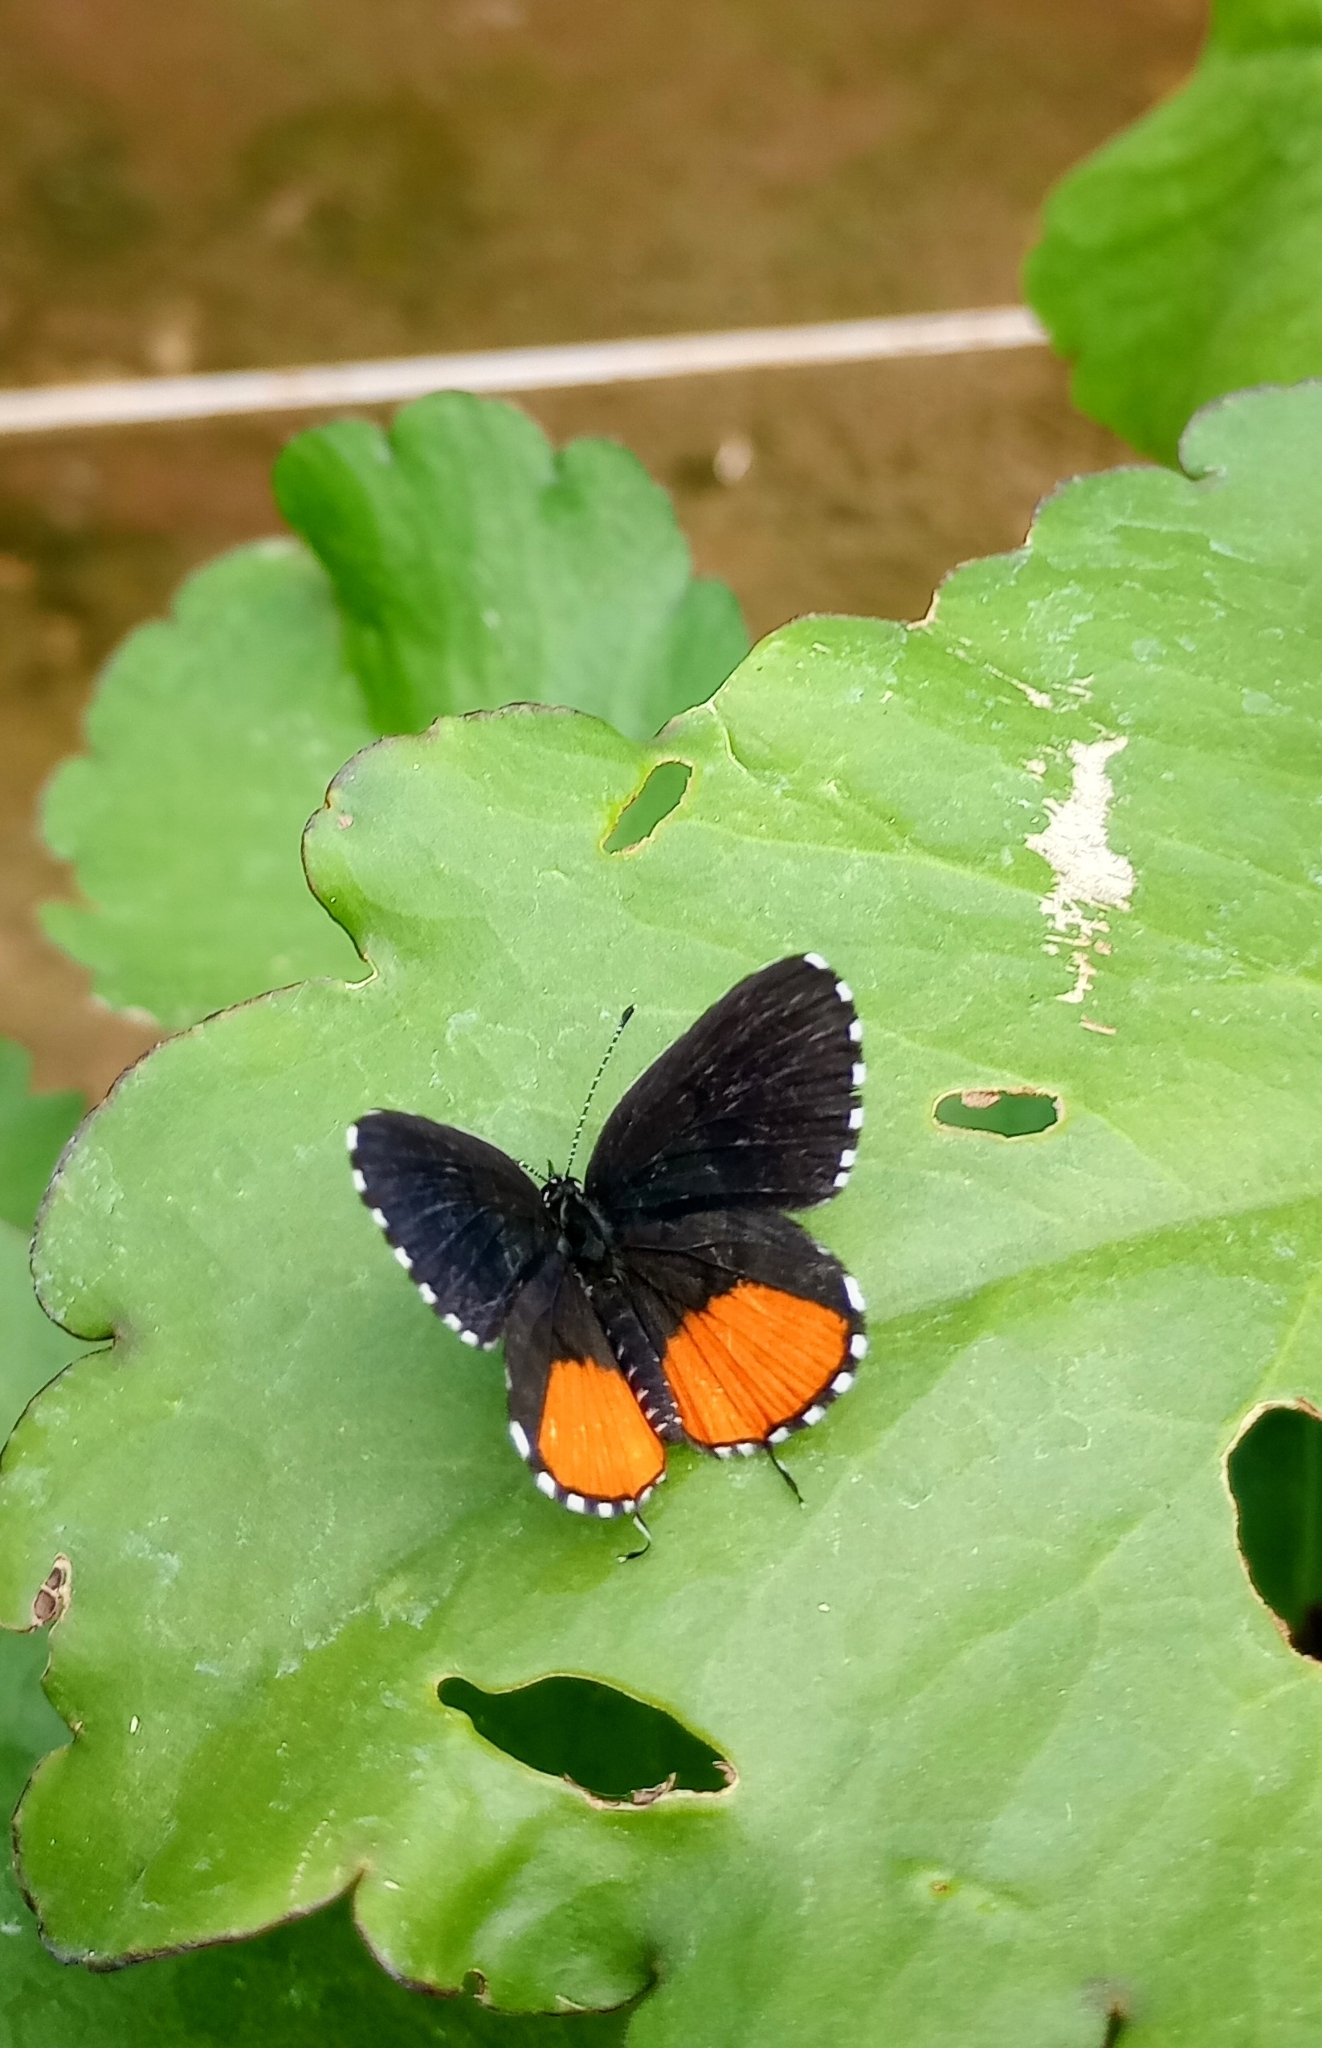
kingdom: Animalia
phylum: Arthropoda
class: Insecta
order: Lepidoptera
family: Lycaenidae
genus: Talicada
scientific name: Talicada nyseus
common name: Red pierrot
